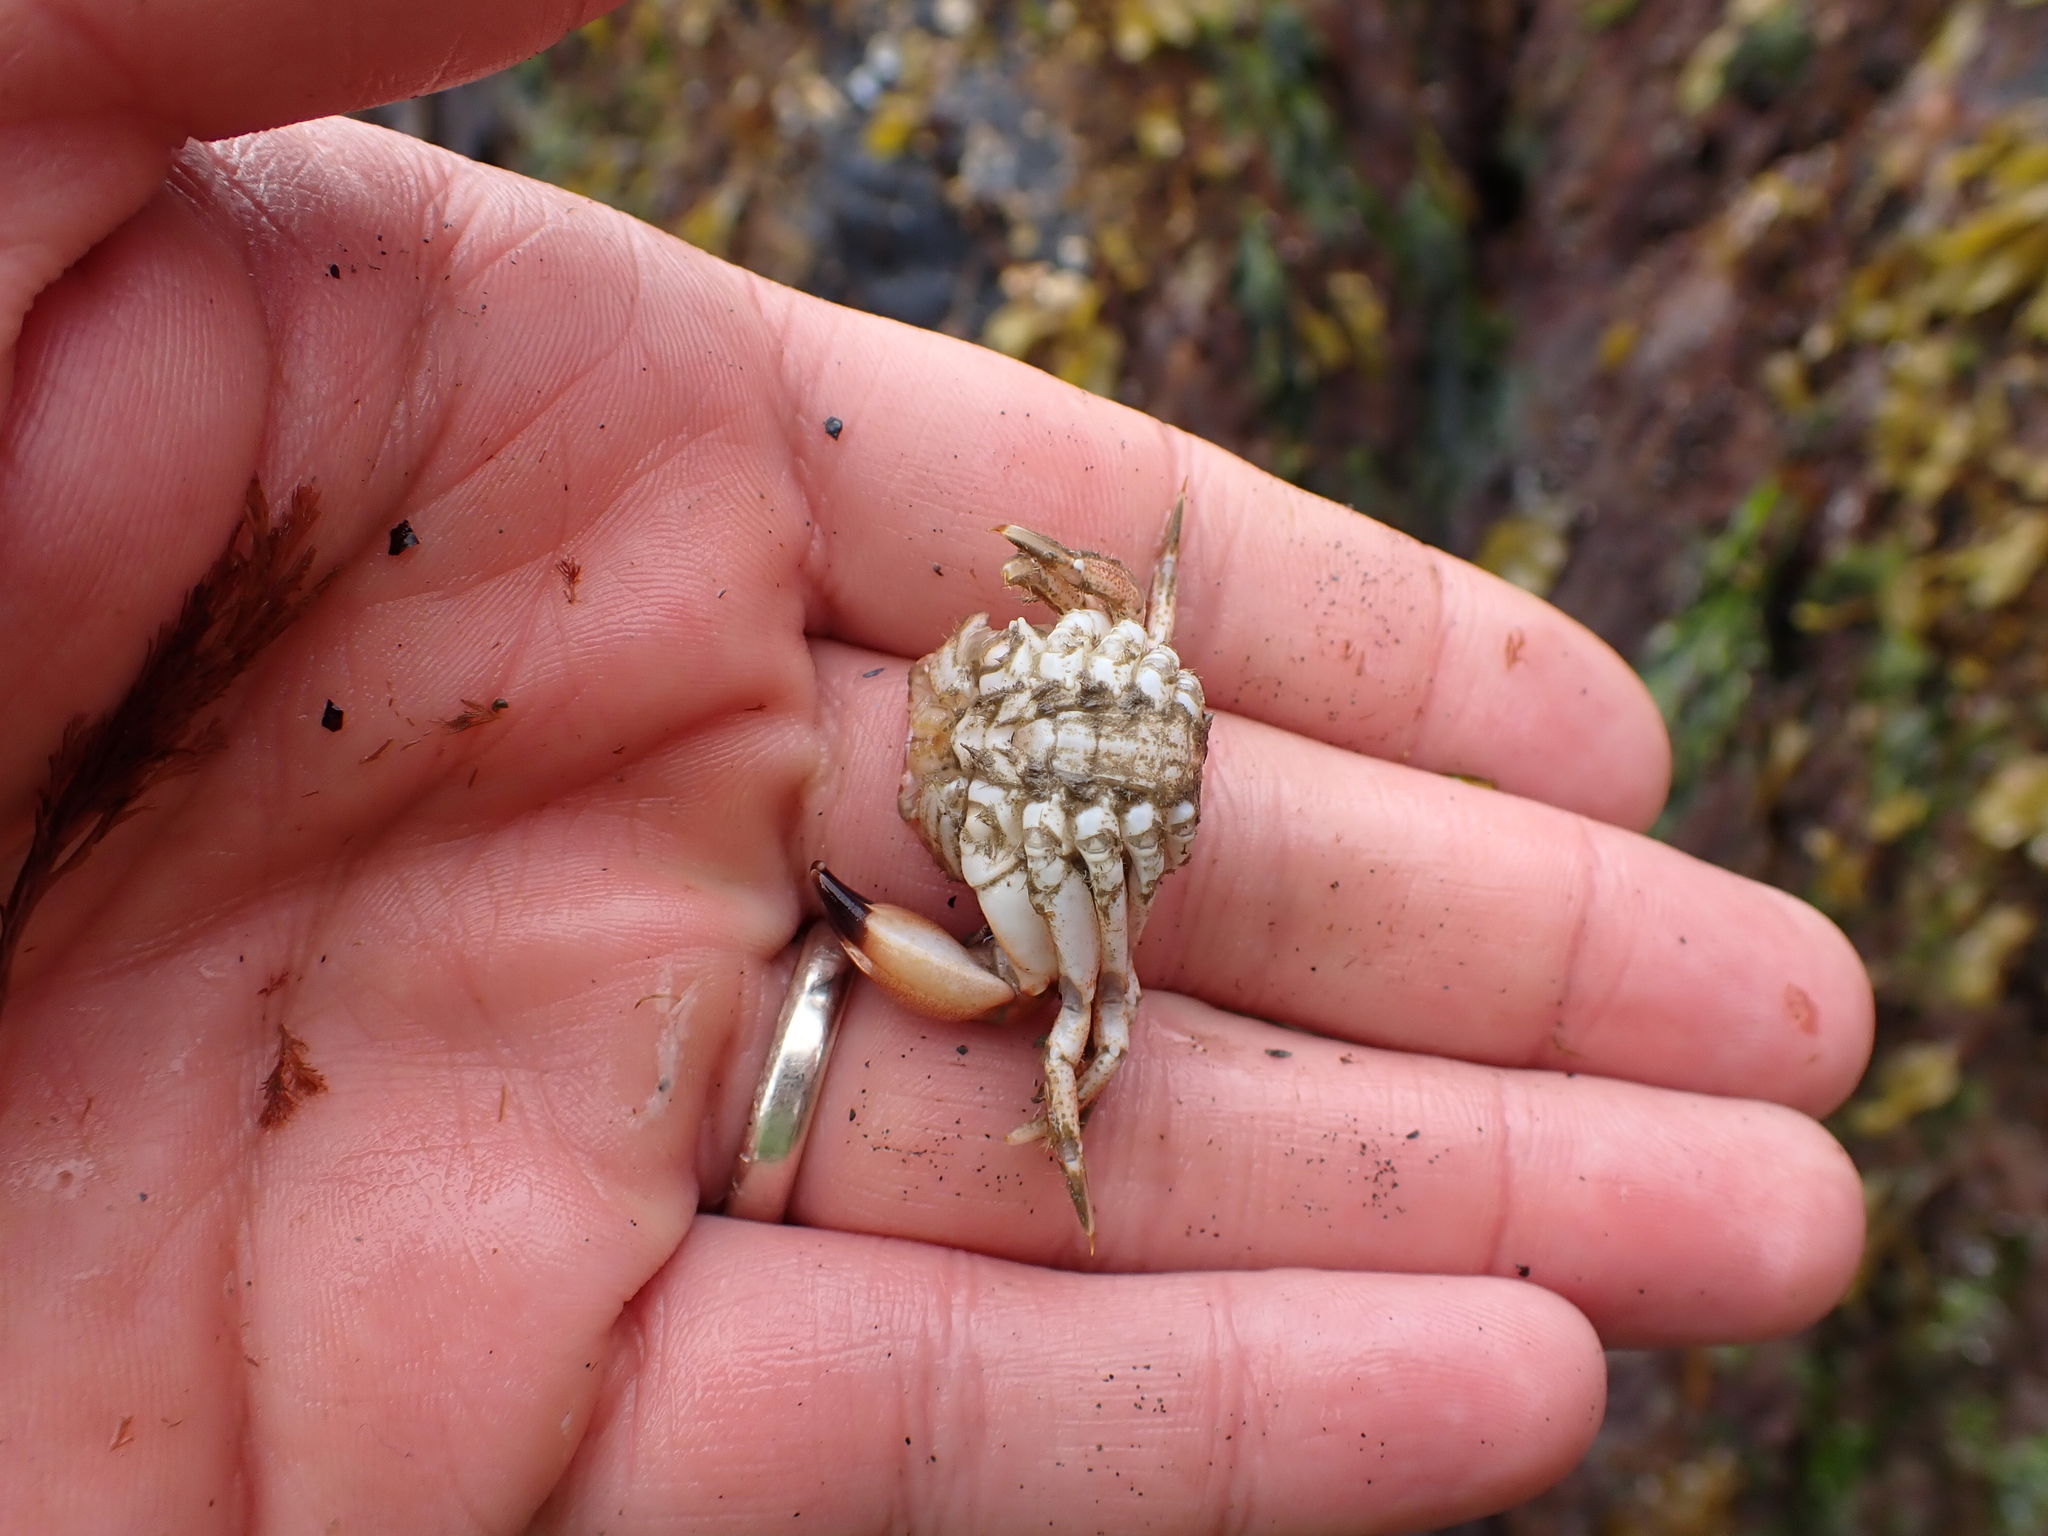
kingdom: Animalia
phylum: Arthropoda
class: Malacostraca
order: Decapoda
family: Cancridae
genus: Glebocarcinus
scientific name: Glebocarcinus oregonensis
